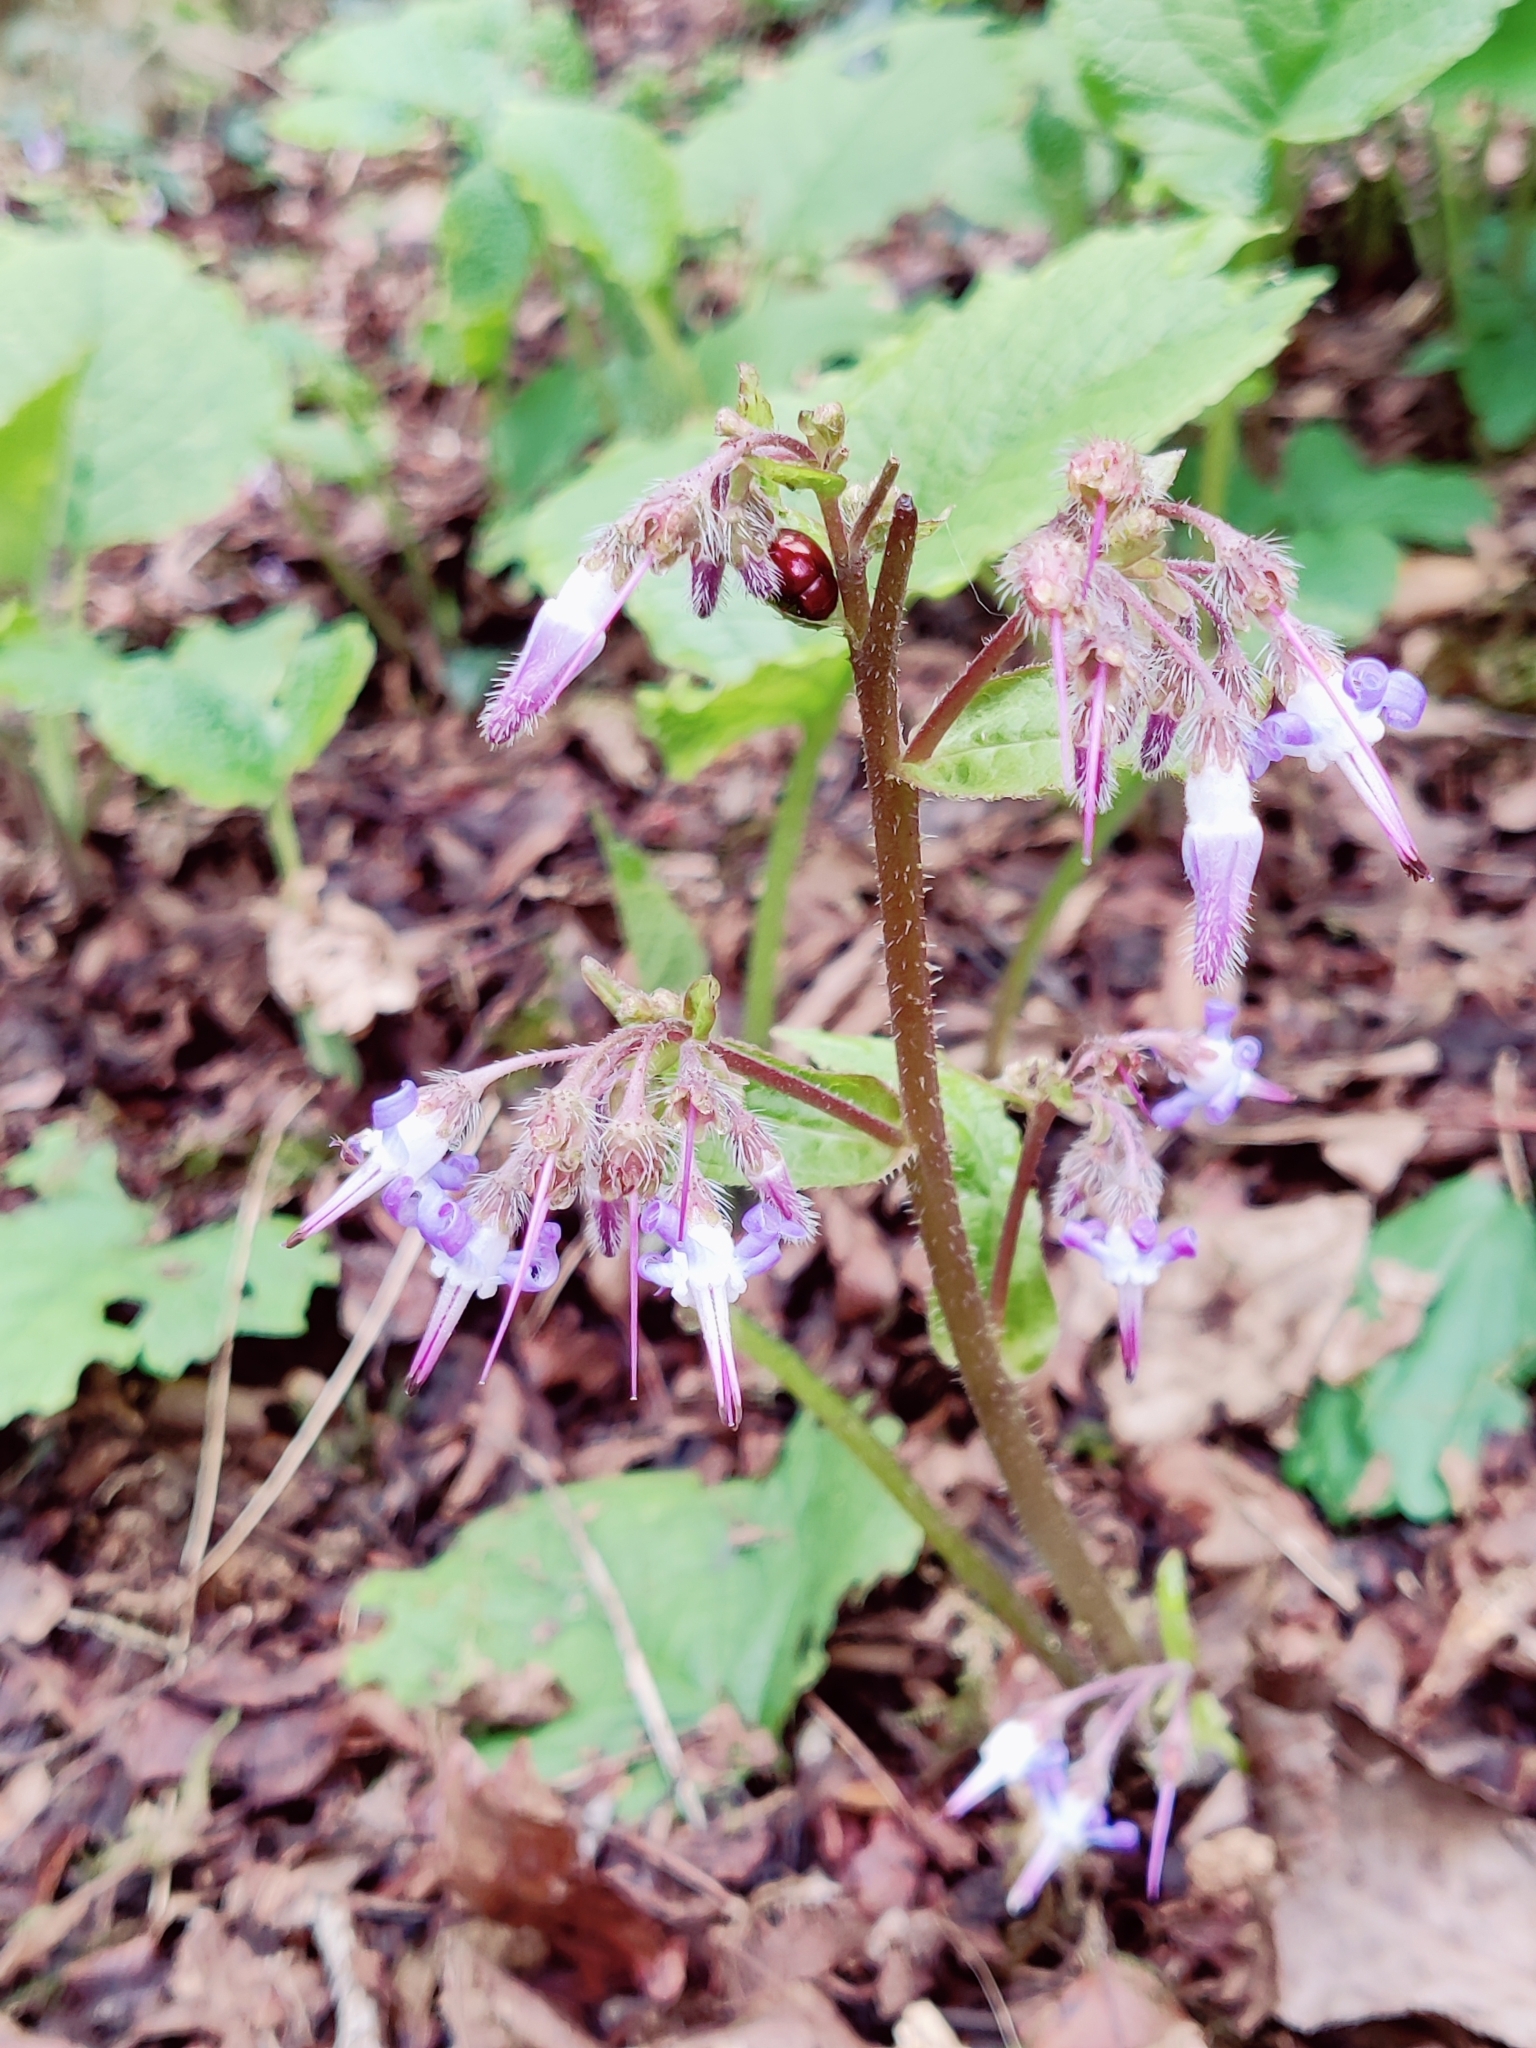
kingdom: Plantae
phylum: Tracheophyta
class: Magnoliopsida
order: Boraginales
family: Boraginaceae
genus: Trachystemon
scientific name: Trachystemon orientale
